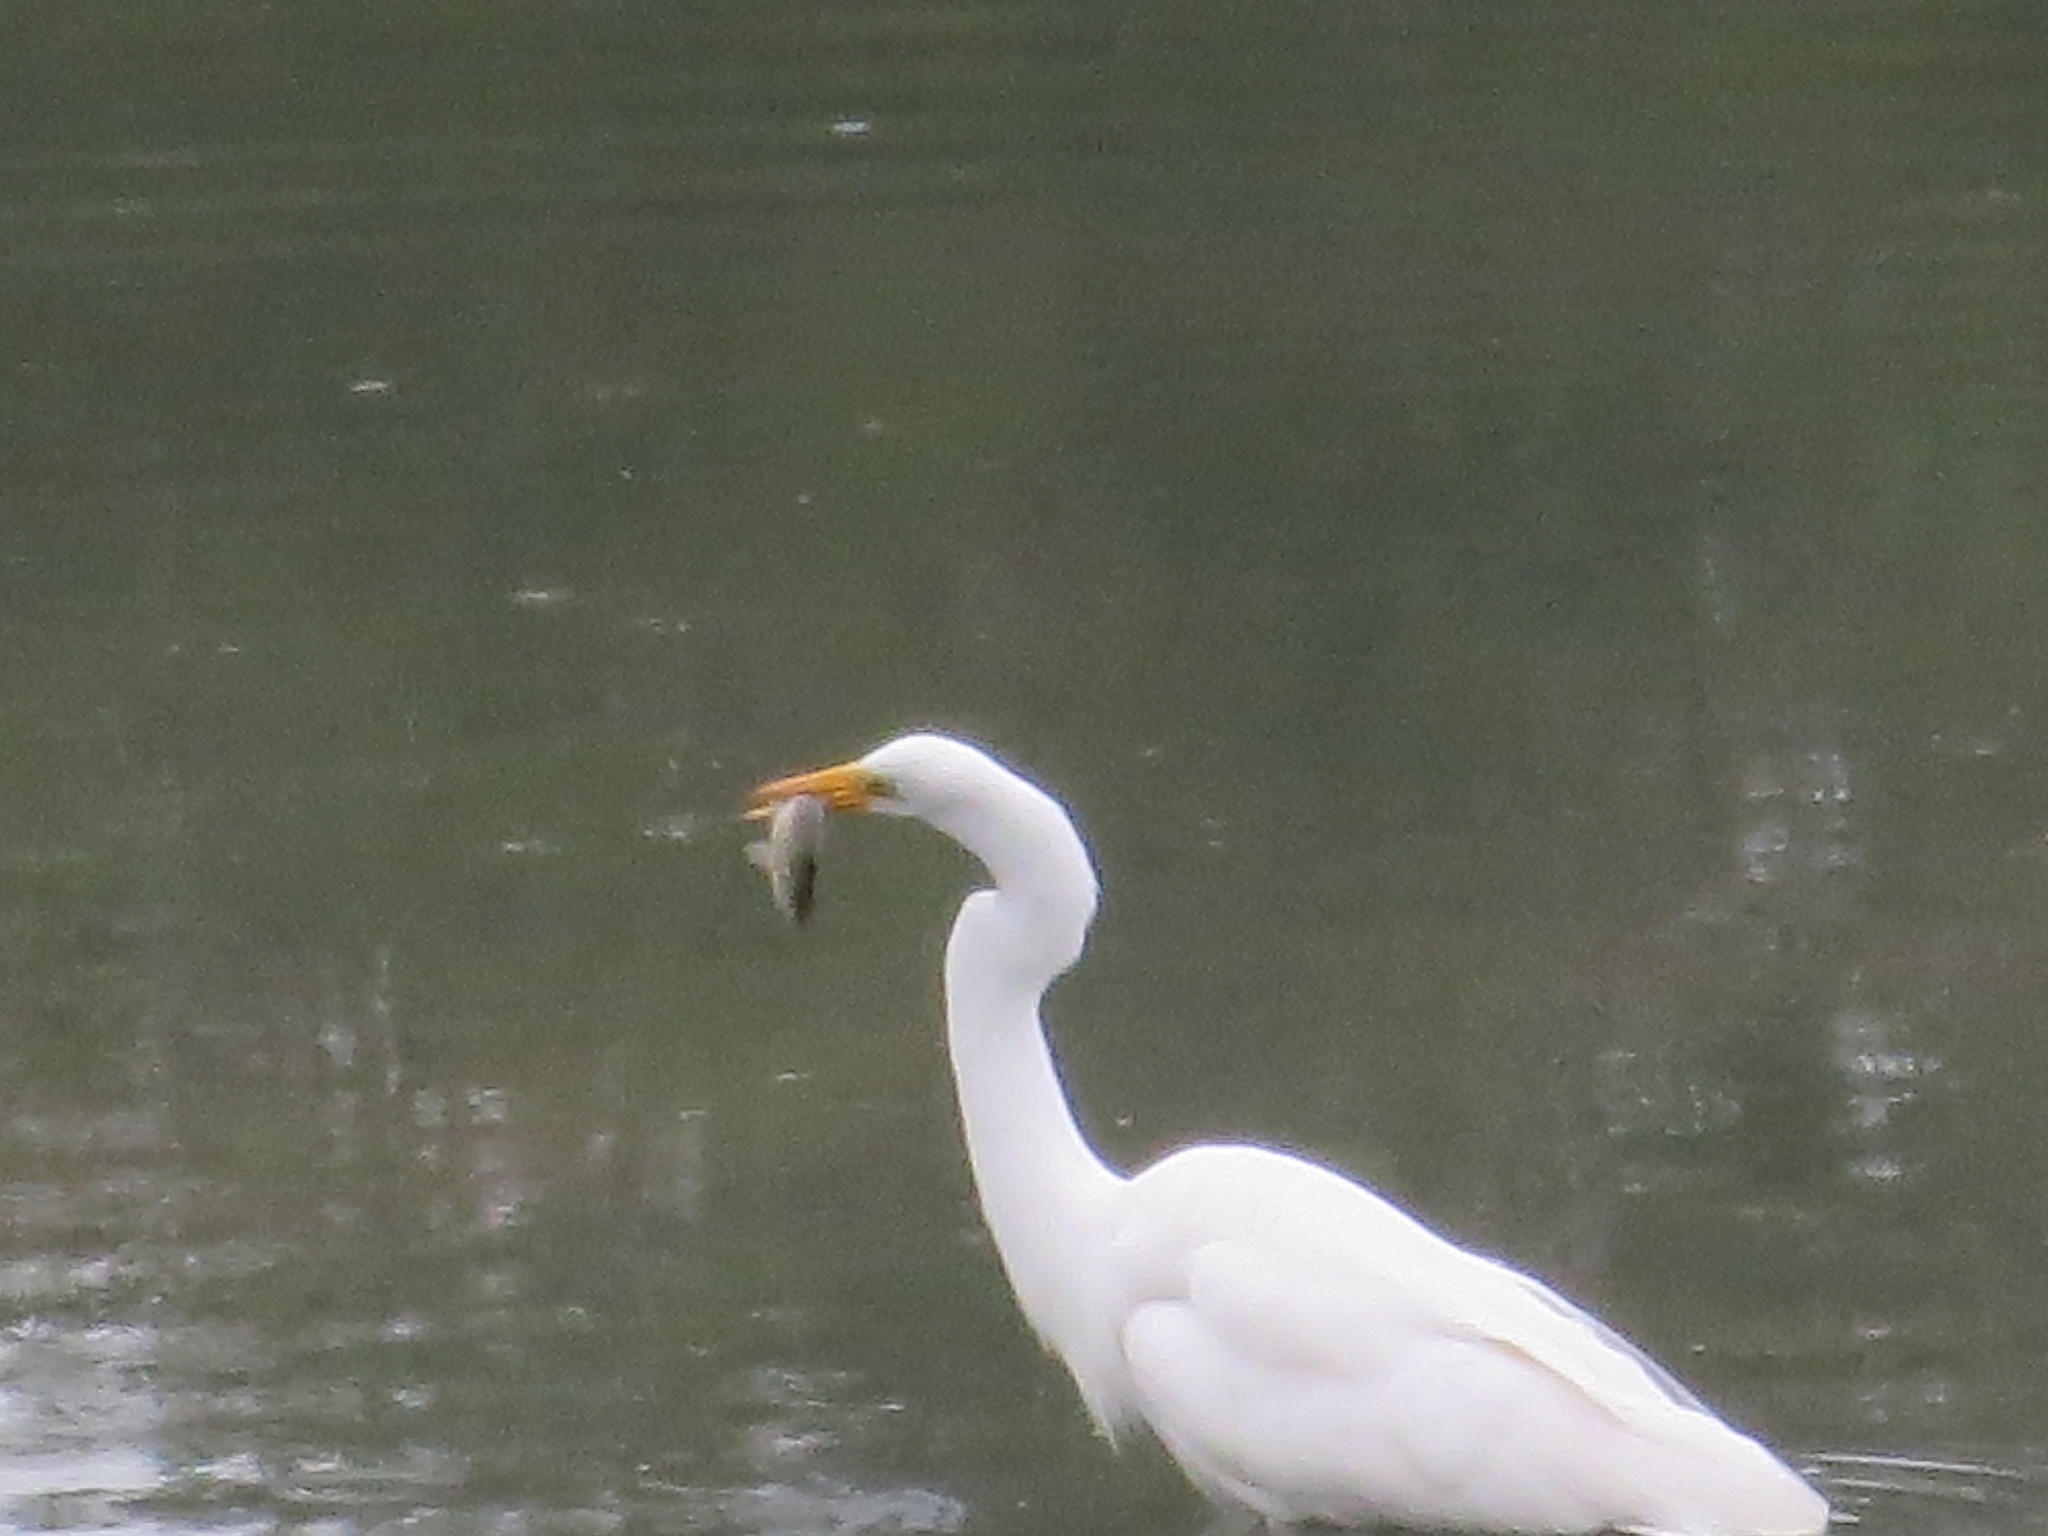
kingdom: Animalia
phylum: Chordata
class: Aves
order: Pelecaniformes
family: Ardeidae
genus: Ardea
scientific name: Ardea alba
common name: Great egret
